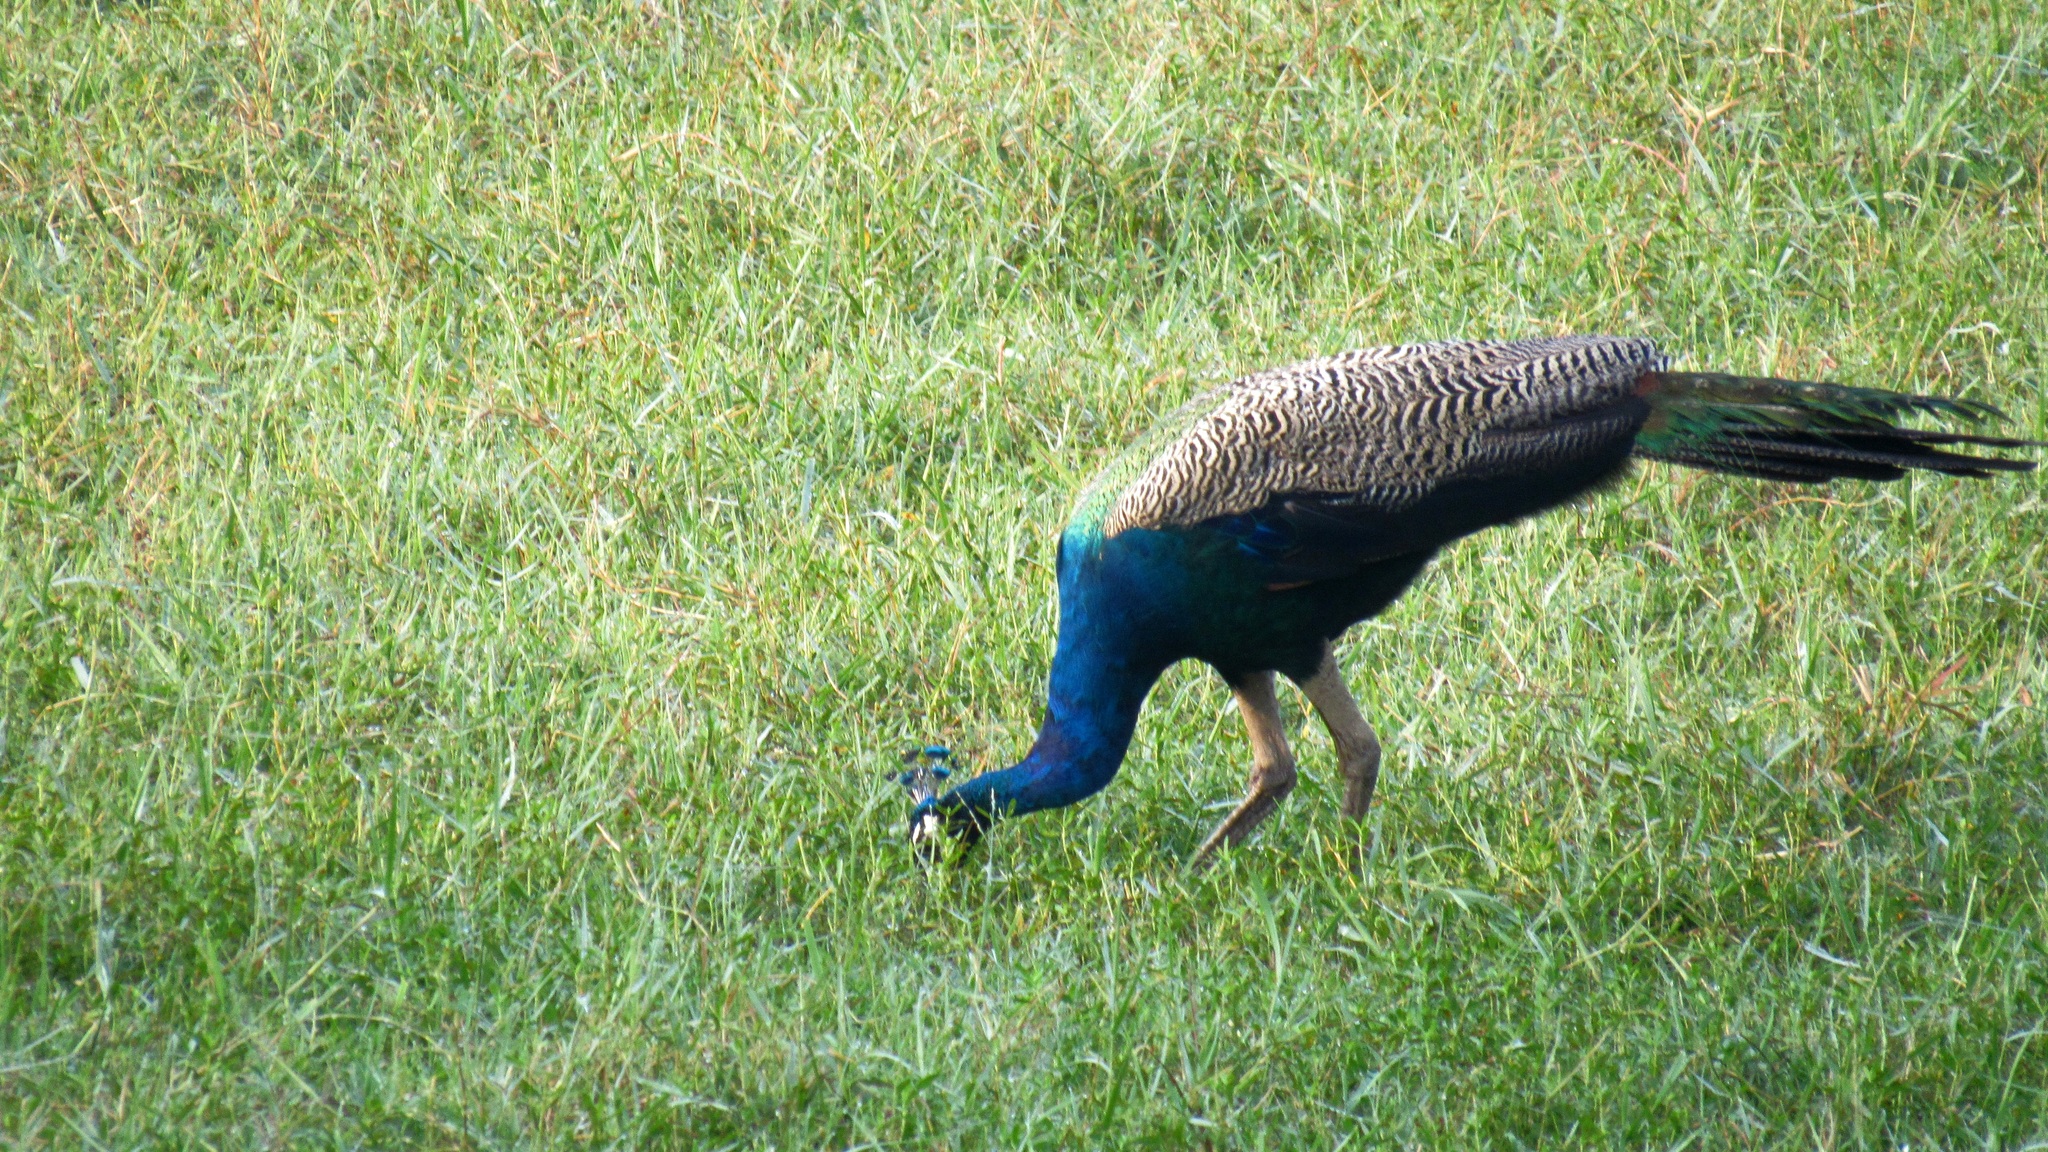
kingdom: Animalia
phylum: Chordata
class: Aves
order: Galliformes
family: Phasianidae
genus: Pavo
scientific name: Pavo cristatus
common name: Indian peafowl
